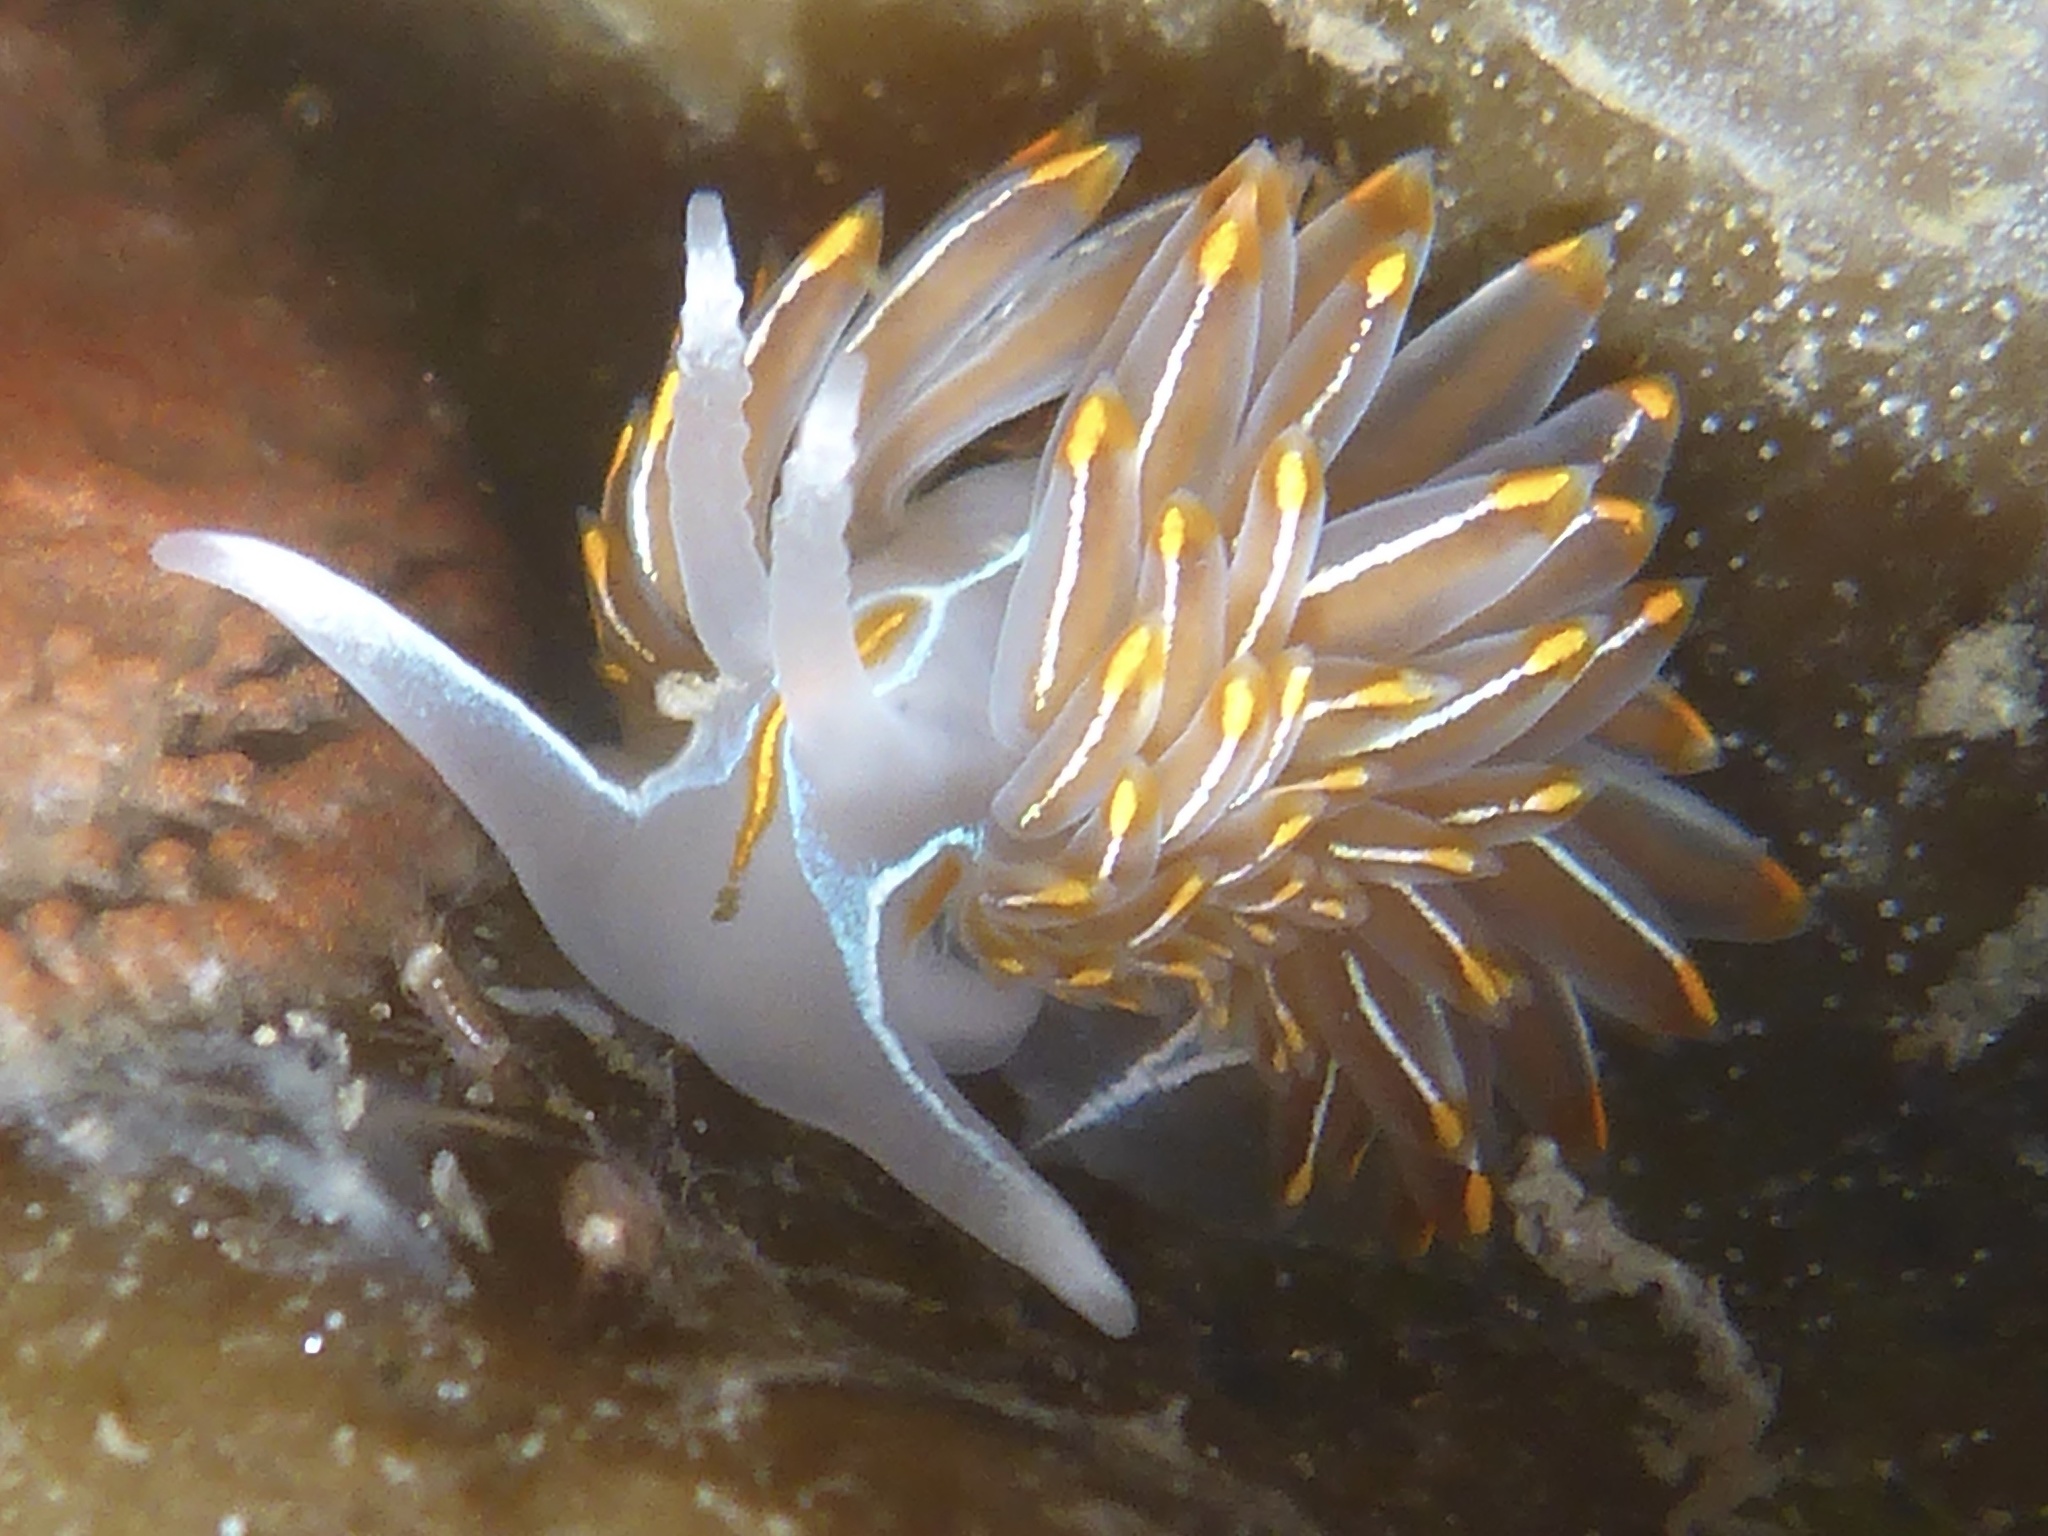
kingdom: Animalia
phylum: Mollusca
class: Gastropoda
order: Nudibranchia
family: Myrrhinidae
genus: Hermissenda
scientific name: Hermissenda crassicornis
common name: Hermissenda
